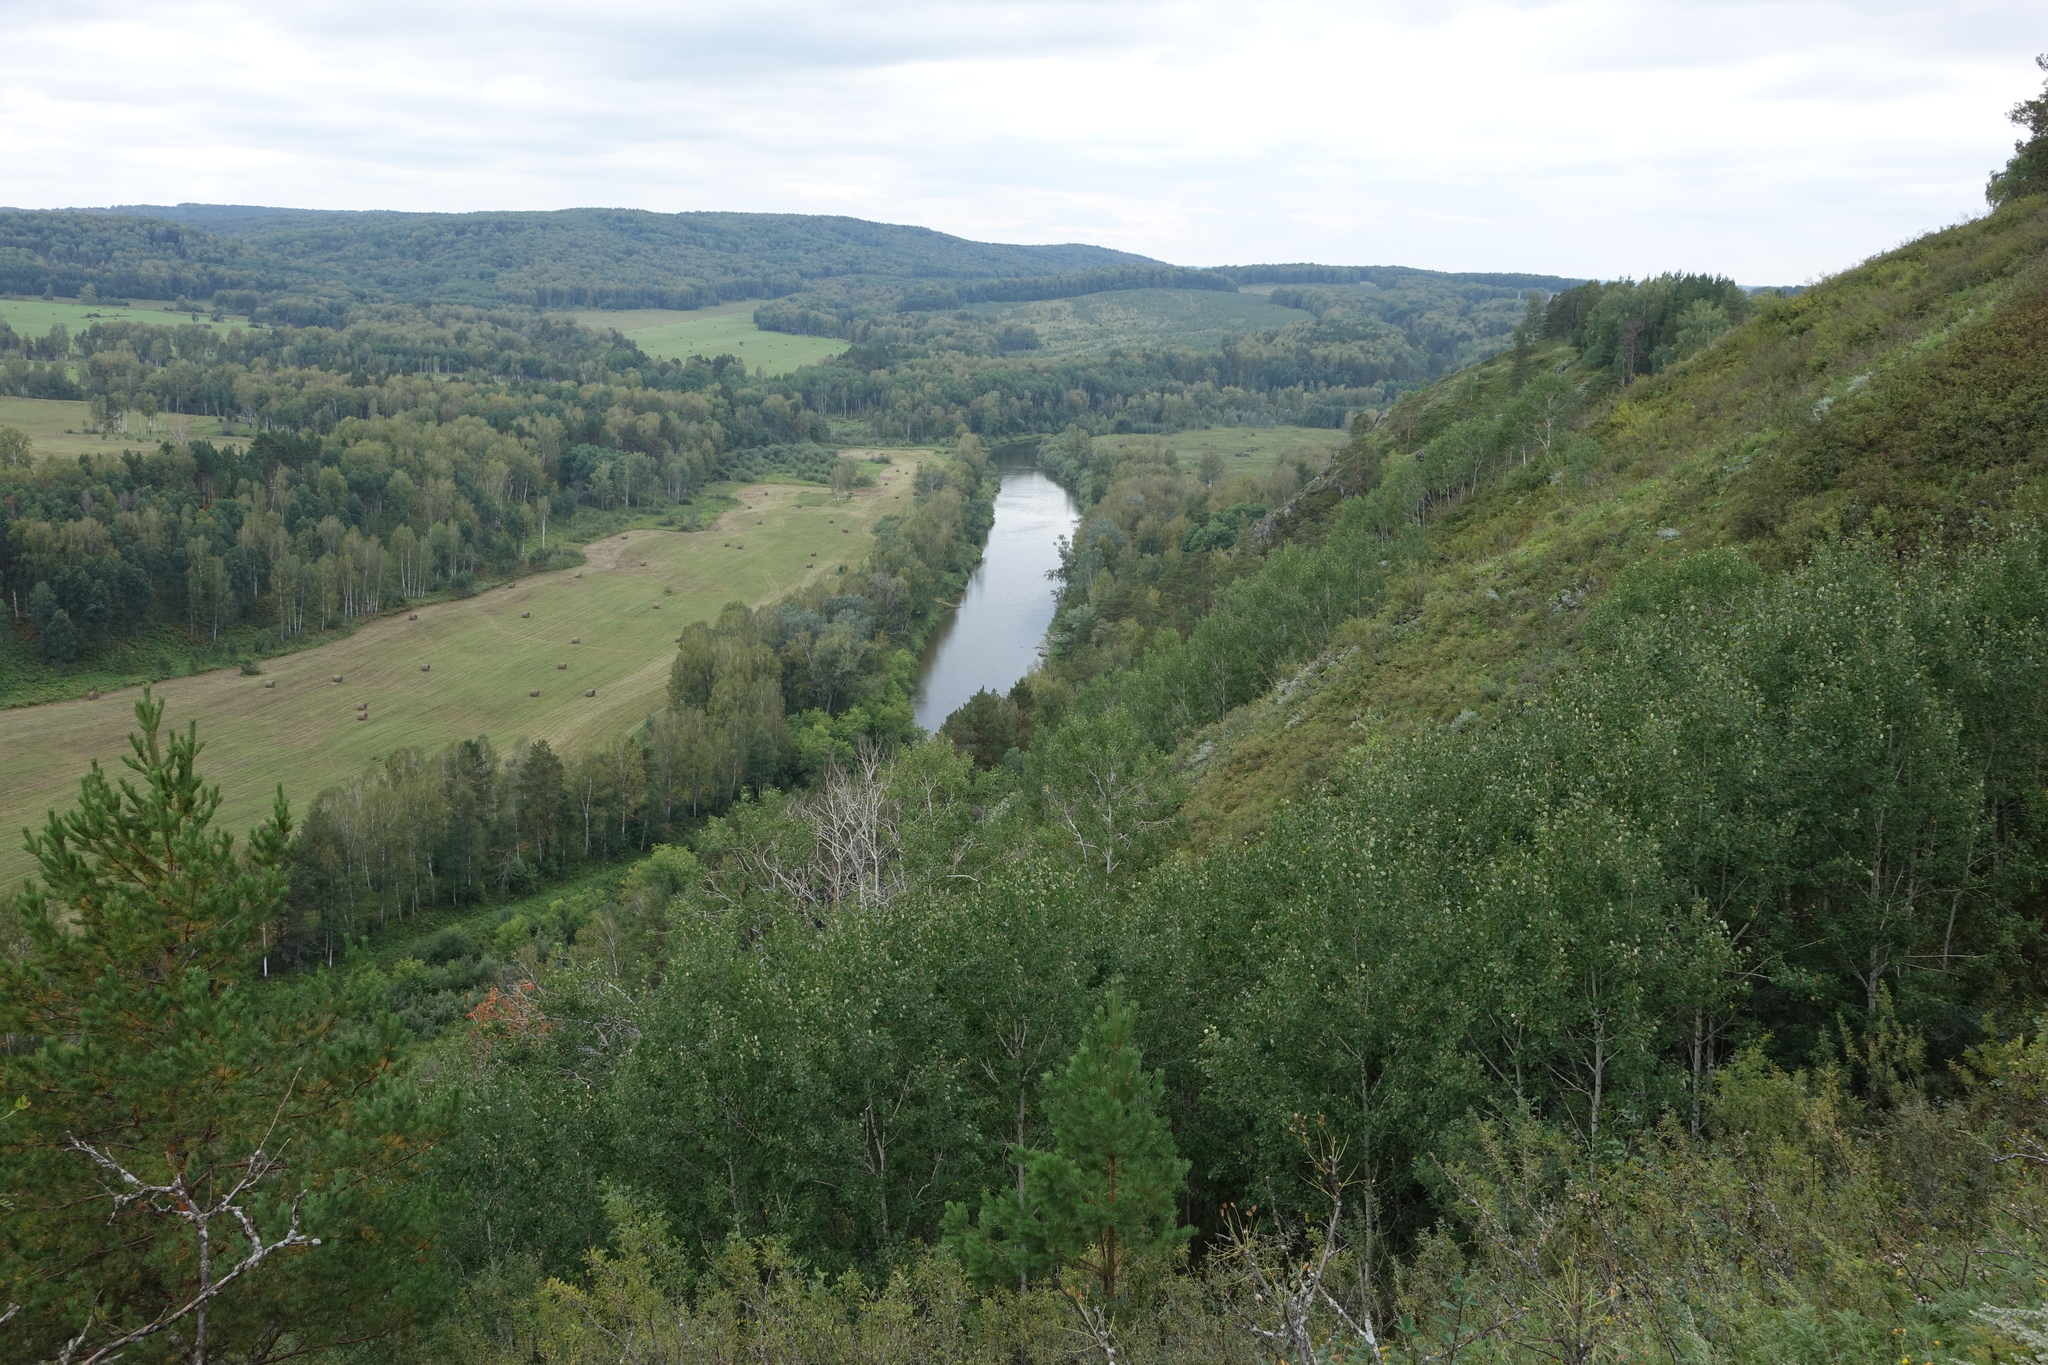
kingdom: Plantae
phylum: Tracheophyta
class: Magnoliopsida
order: Malpighiales
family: Salicaceae
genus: Populus
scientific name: Populus tremula
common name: European aspen
